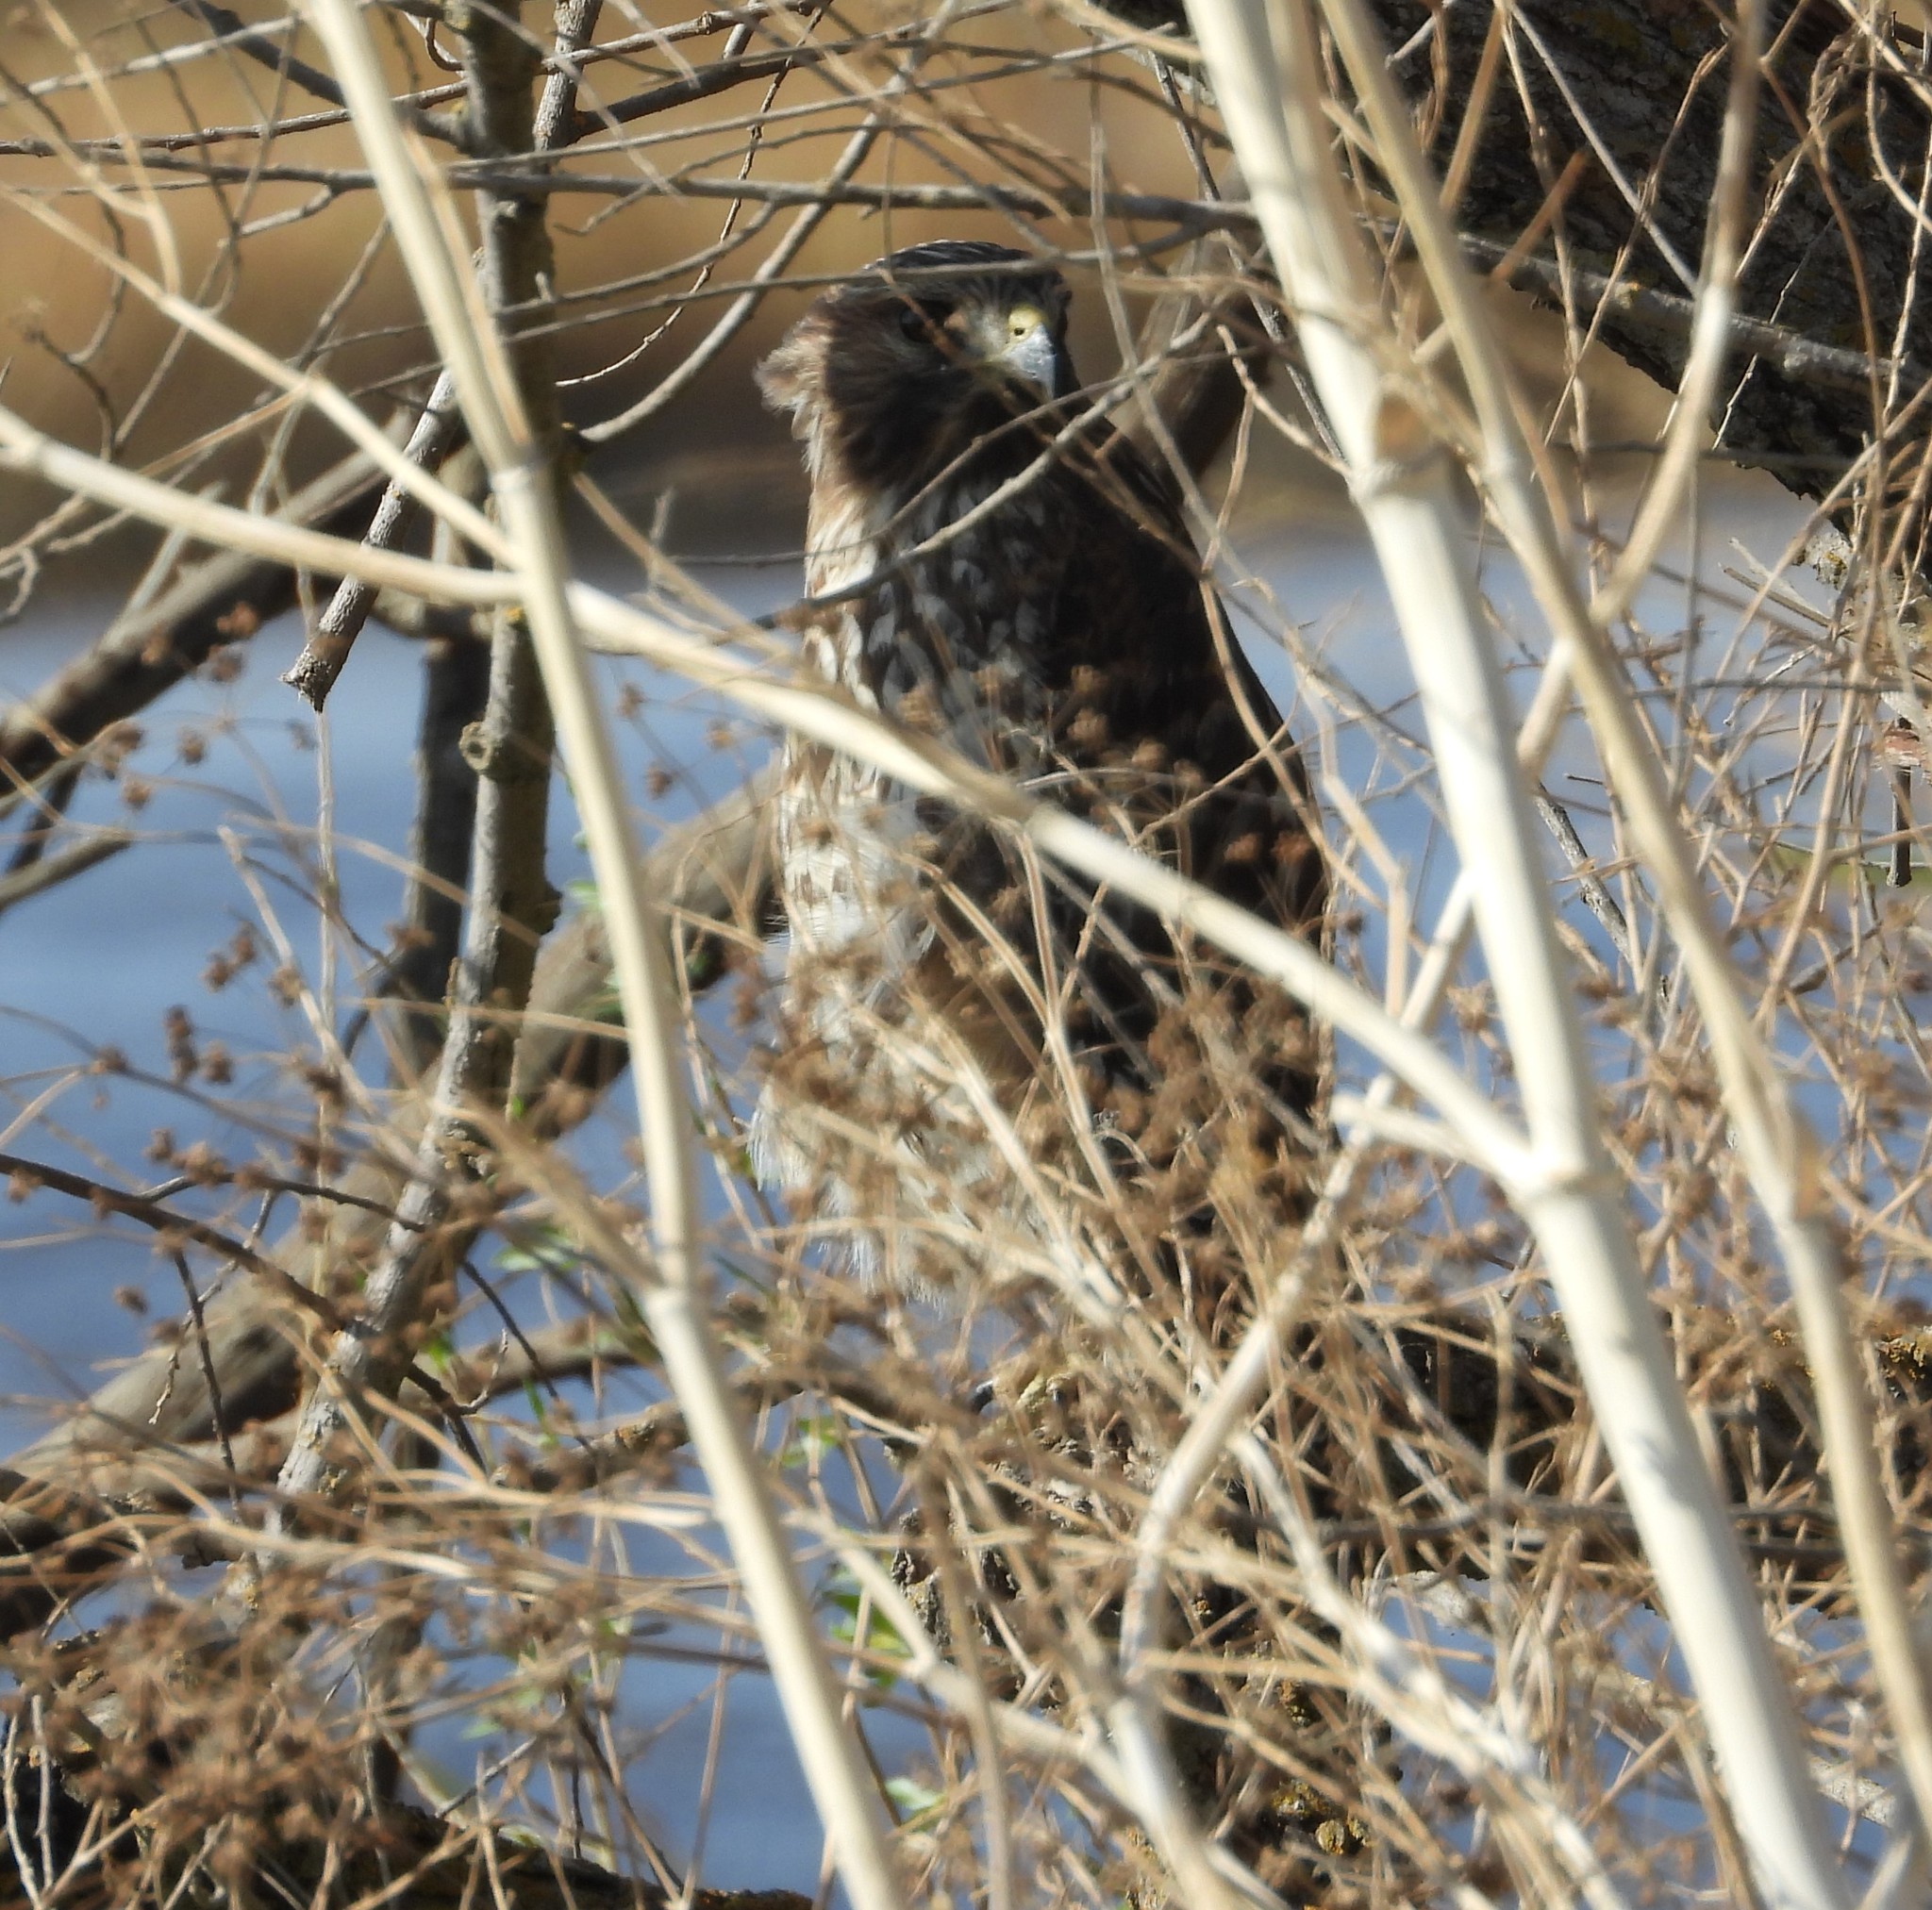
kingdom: Animalia
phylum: Chordata
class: Aves
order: Accipitriformes
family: Accipitridae
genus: Buteo
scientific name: Buteo lineatus
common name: Red-shouldered hawk
